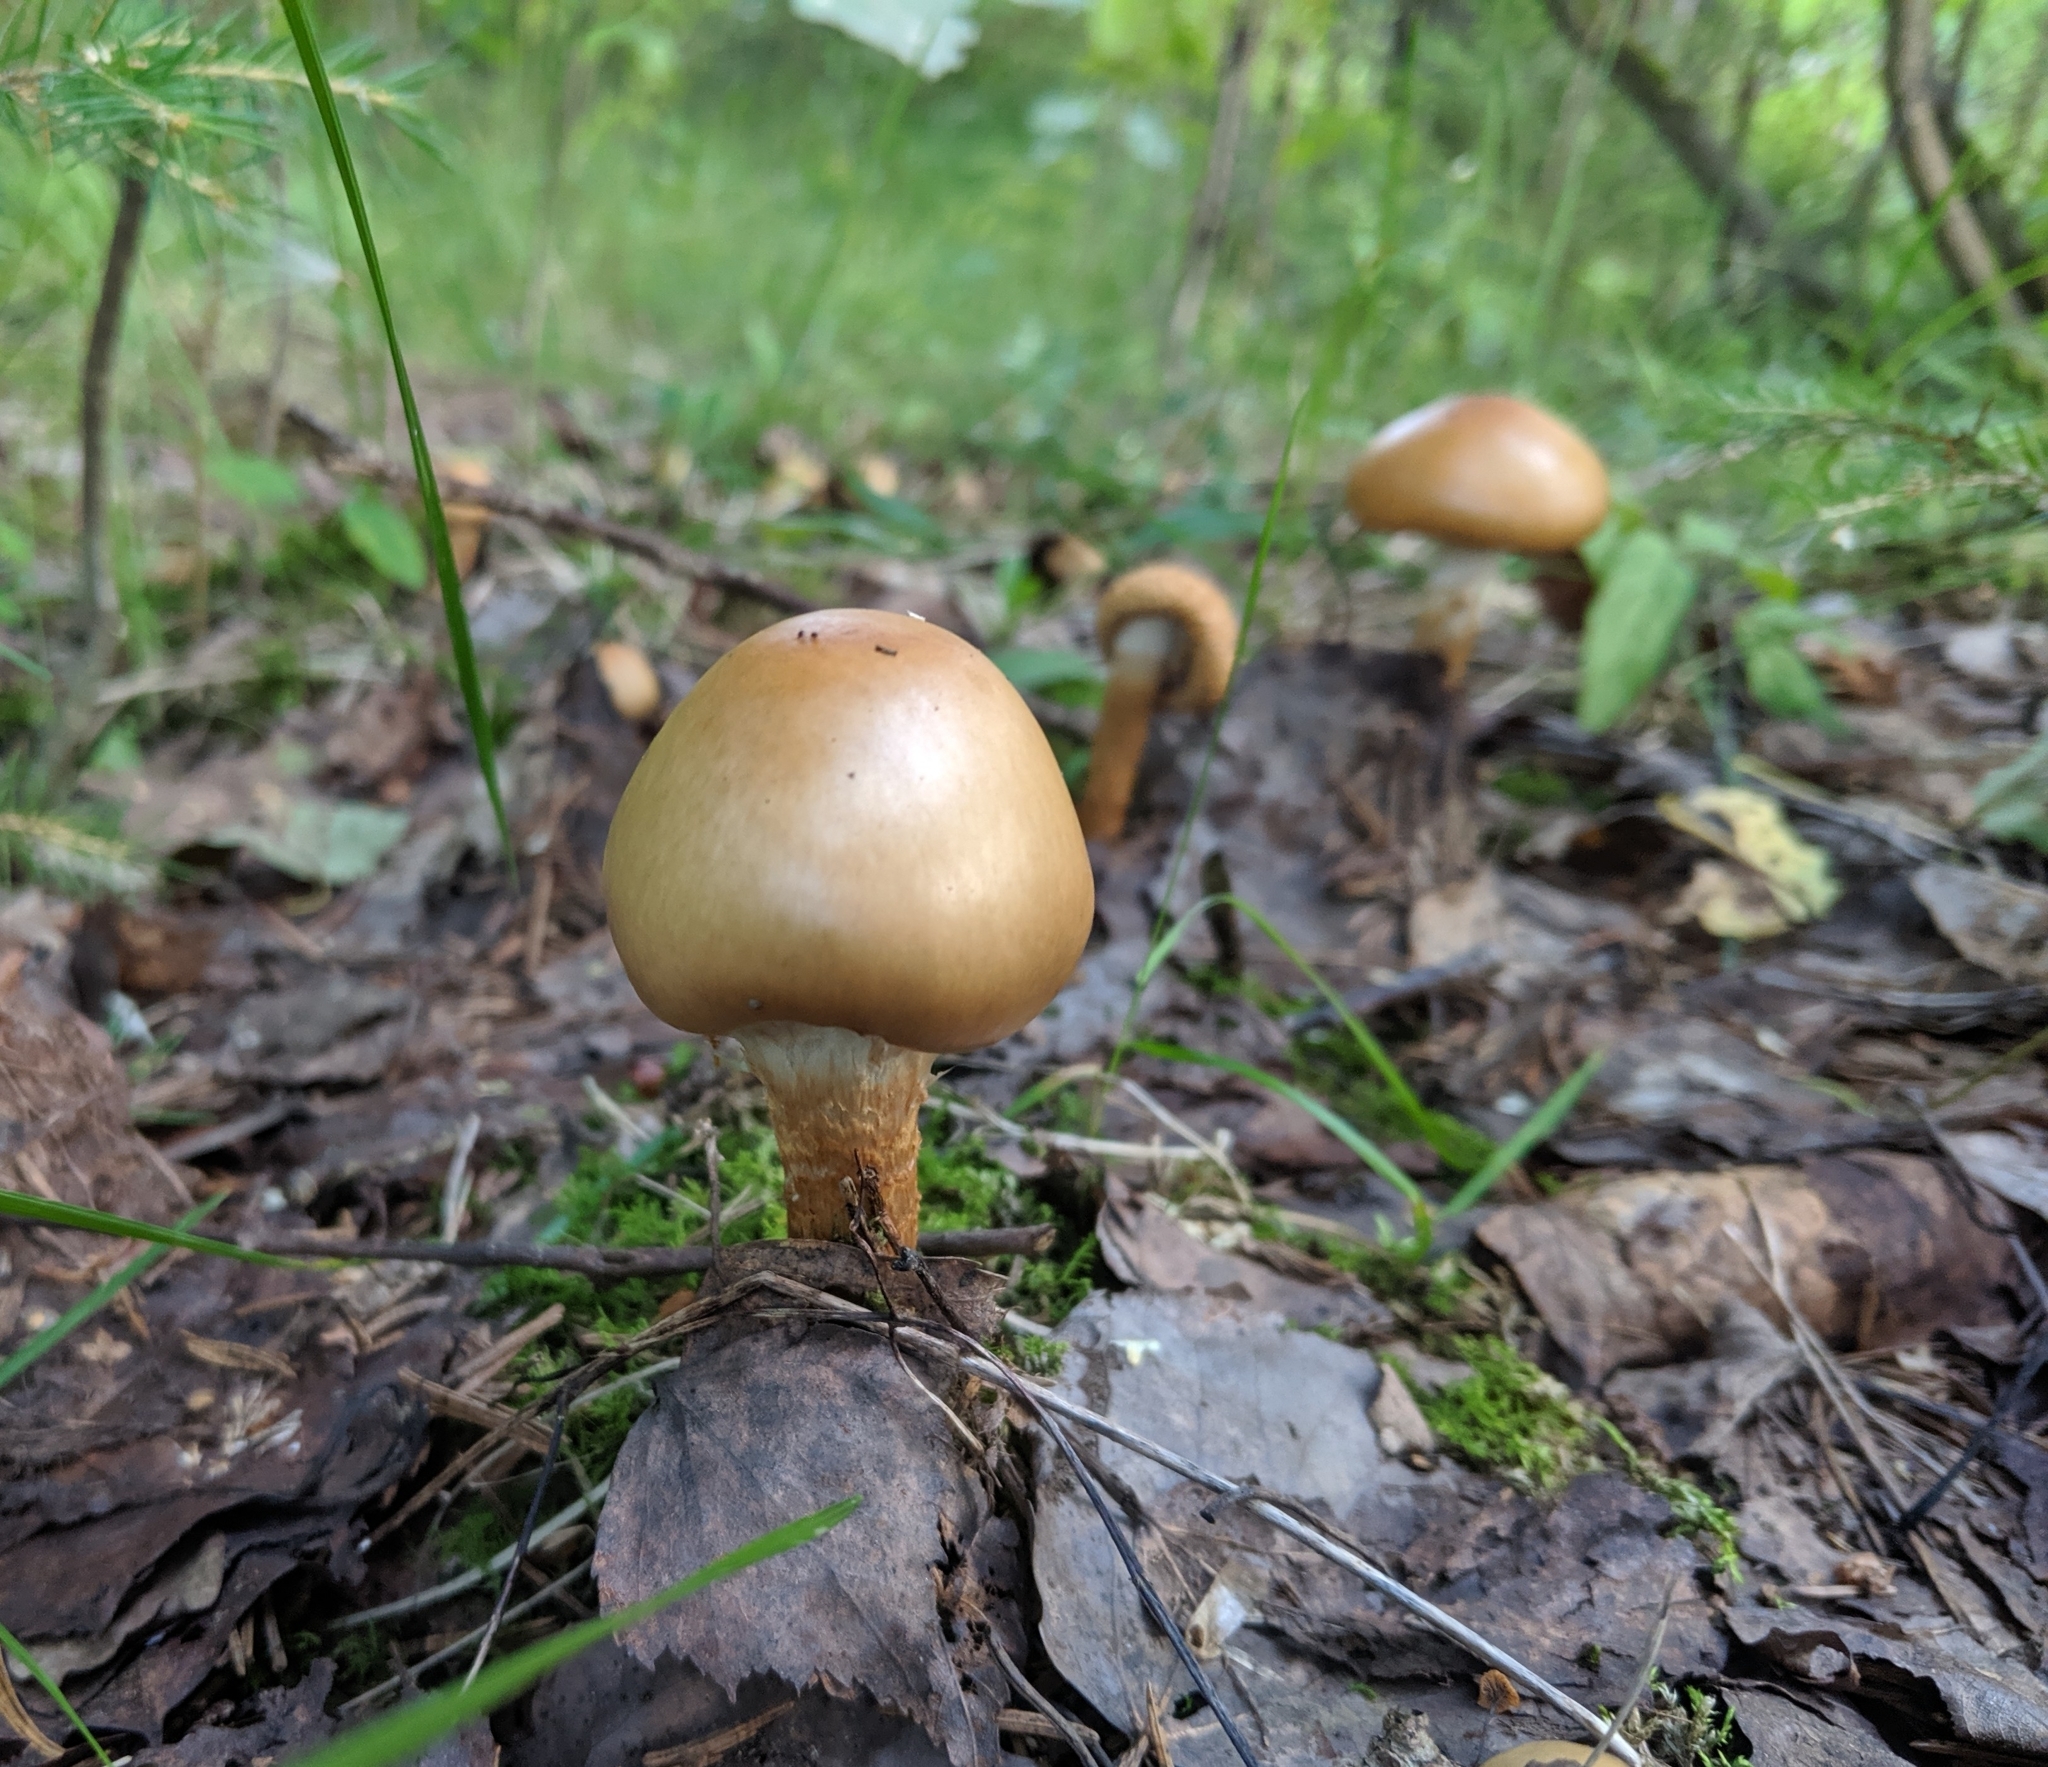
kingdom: Fungi
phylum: Basidiomycota
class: Agaricomycetes
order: Agaricales
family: Cortinariaceae
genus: Cortinarius
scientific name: Cortinarius trivialis
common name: Girdled webcap
